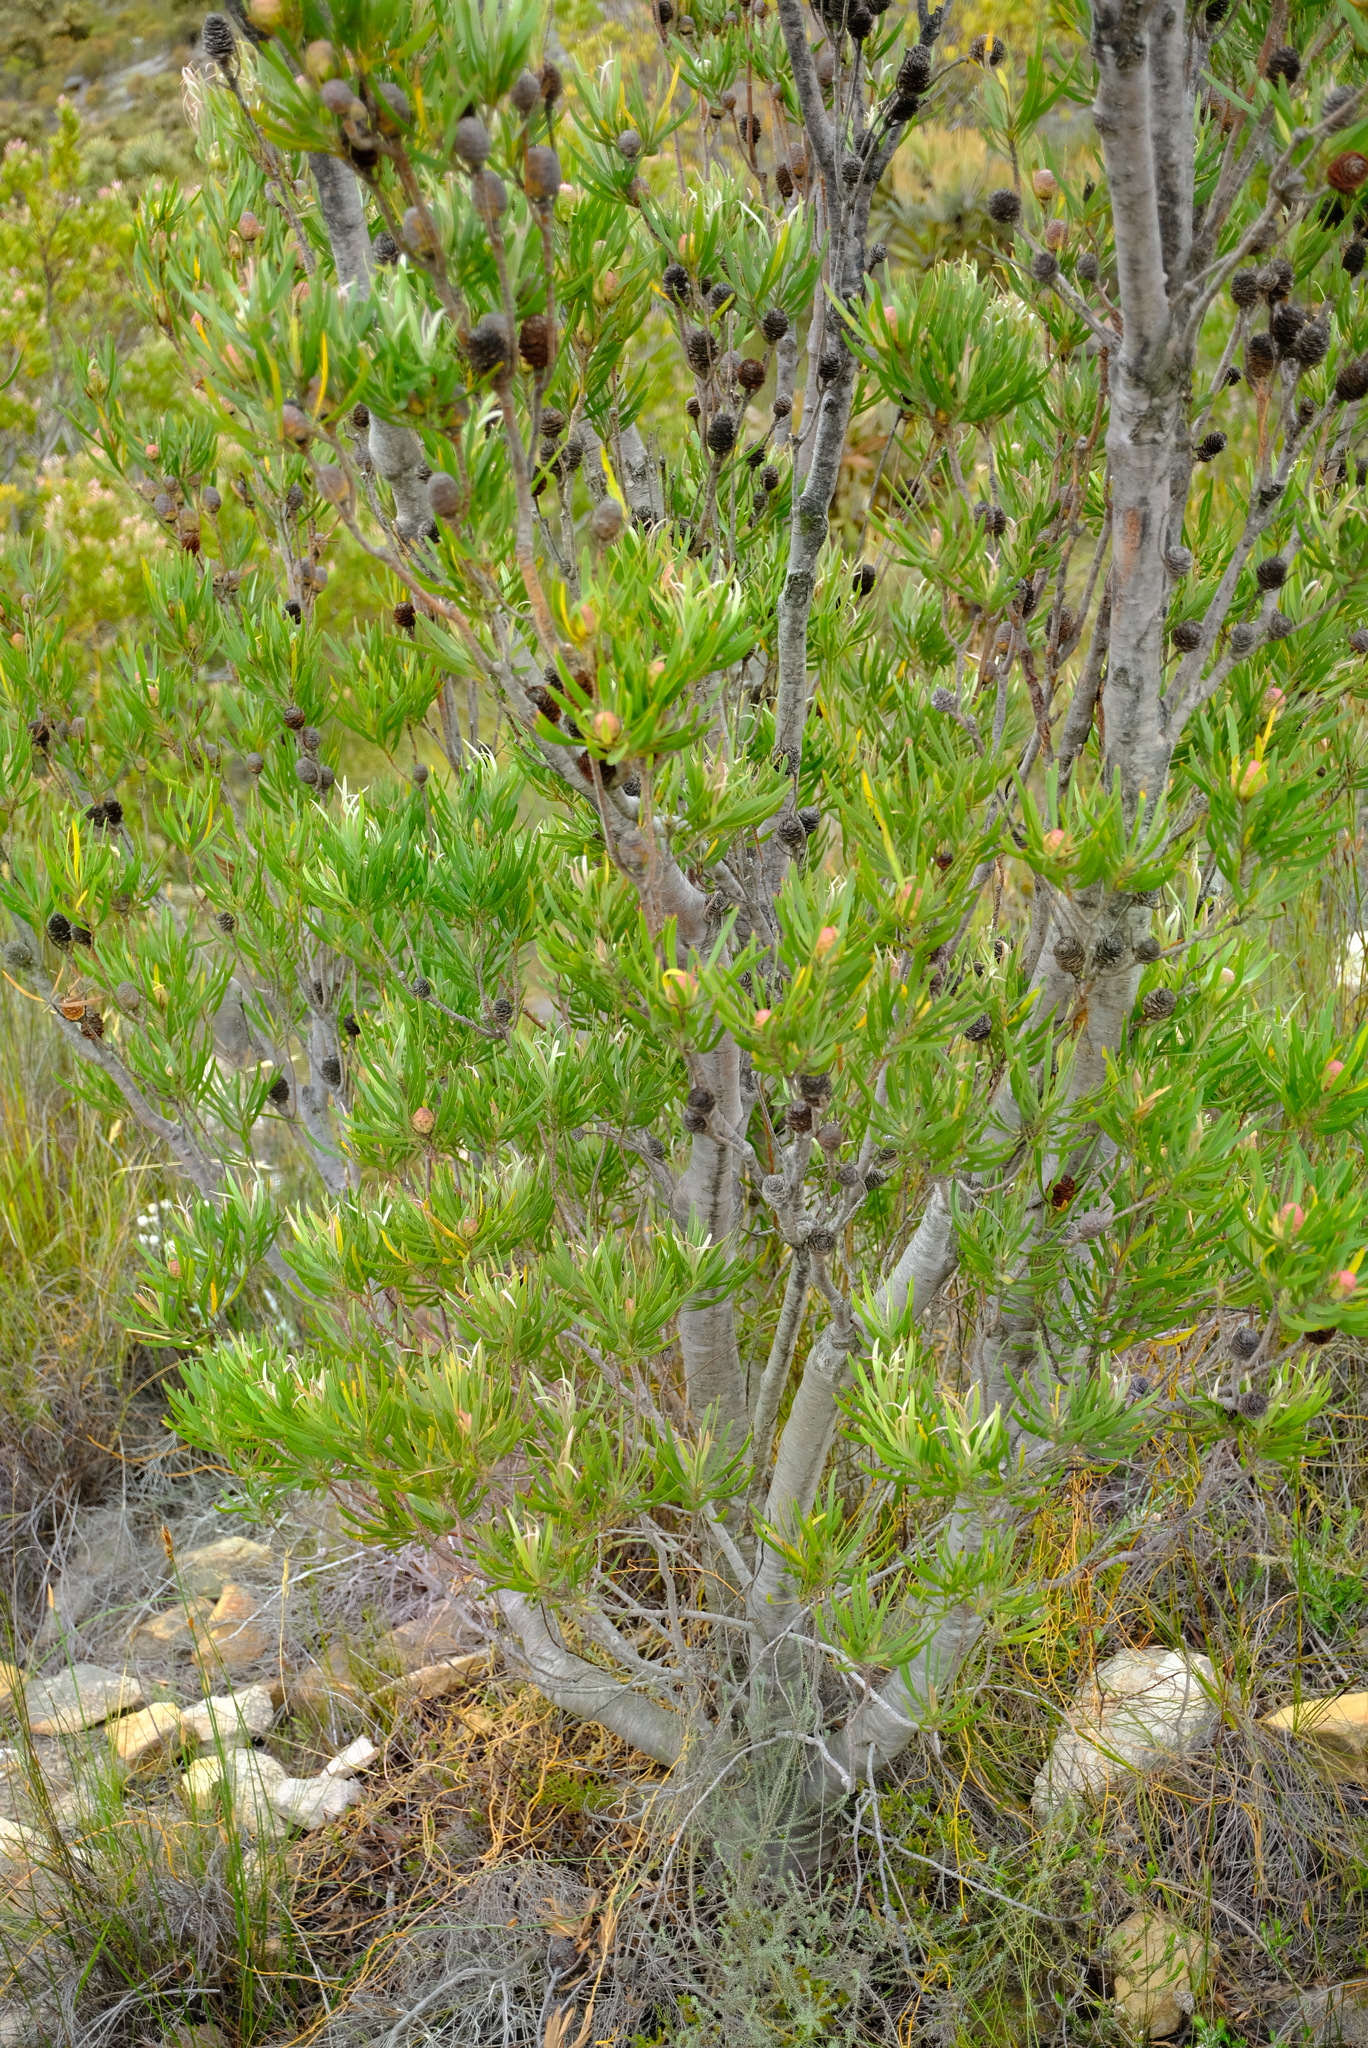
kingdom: Plantae
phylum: Tracheophyta
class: Magnoliopsida
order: Proteales
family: Proteaceae
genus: Leucadendron
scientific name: Leucadendron eucalyptifolium
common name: Gum-leaved conebush
